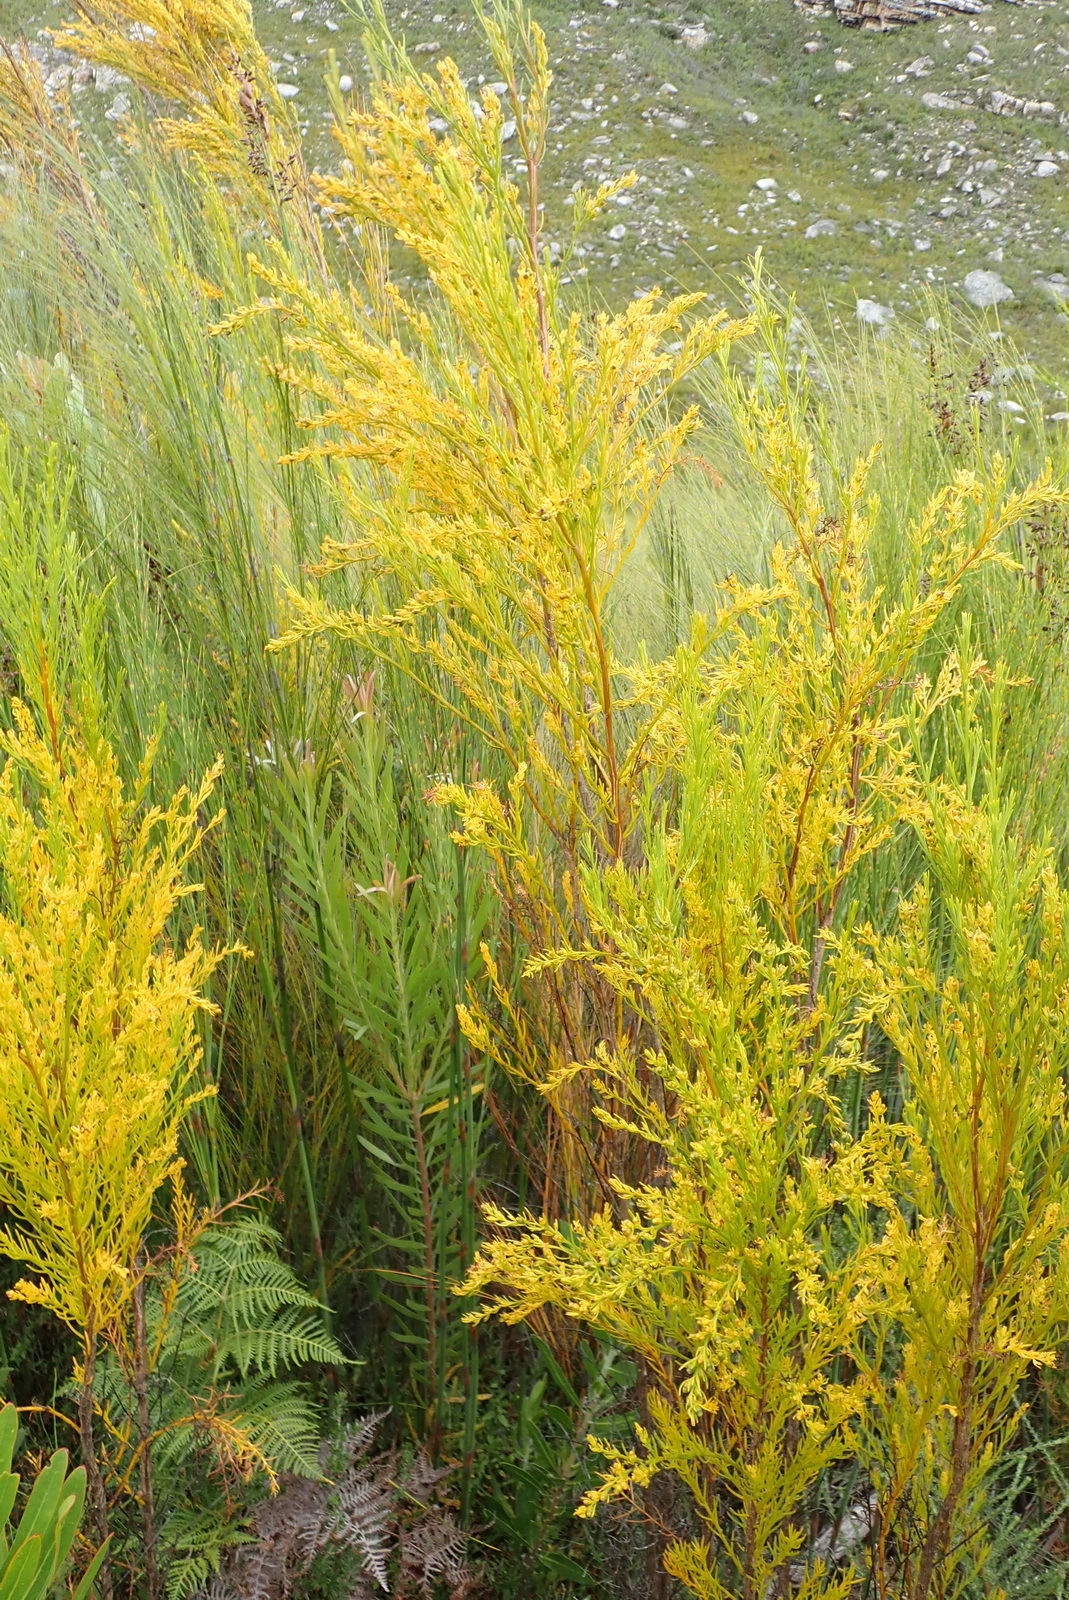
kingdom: Plantae
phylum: Tracheophyta
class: Magnoliopsida
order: Santalales
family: Thesiaceae
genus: Thesium
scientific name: Thesium susannae
